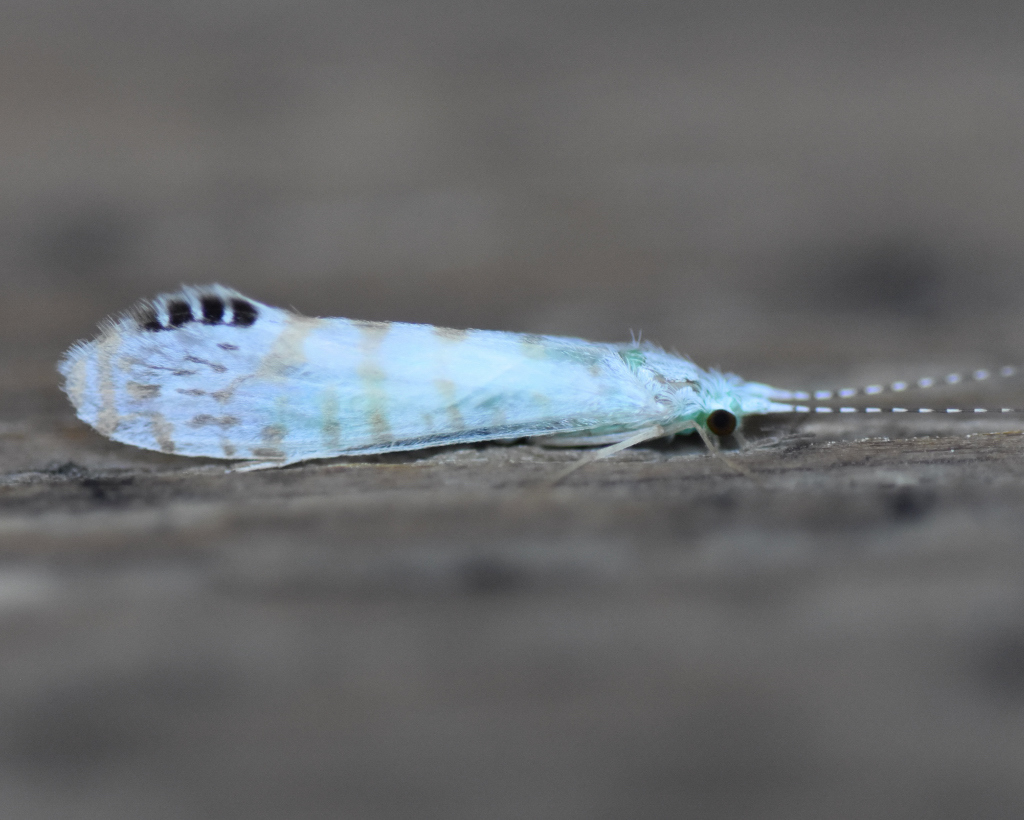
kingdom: Animalia
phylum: Arthropoda
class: Insecta
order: Trichoptera
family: Leptoceridae
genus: Nectopsyche
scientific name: Nectopsyche exquisita
